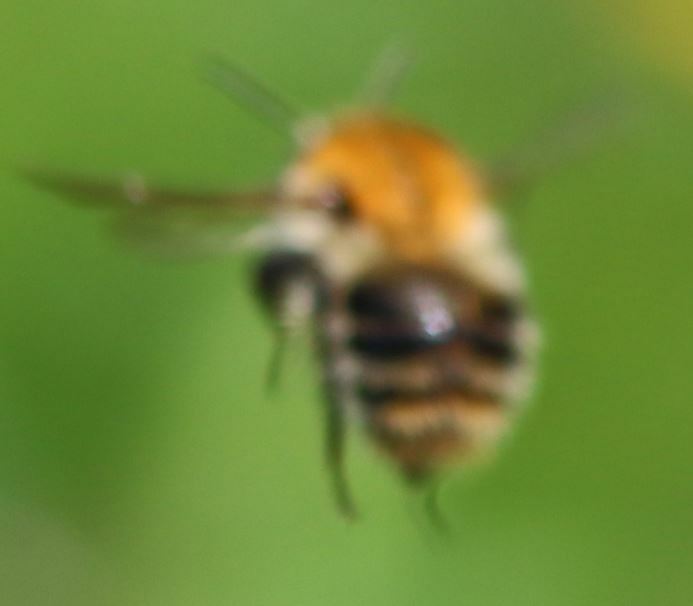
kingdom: Animalia
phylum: Arthropoda
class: Insecta
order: Hymenoptera
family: Apidae
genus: Bombus
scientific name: Bombus pascuorum
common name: Common carder bee
